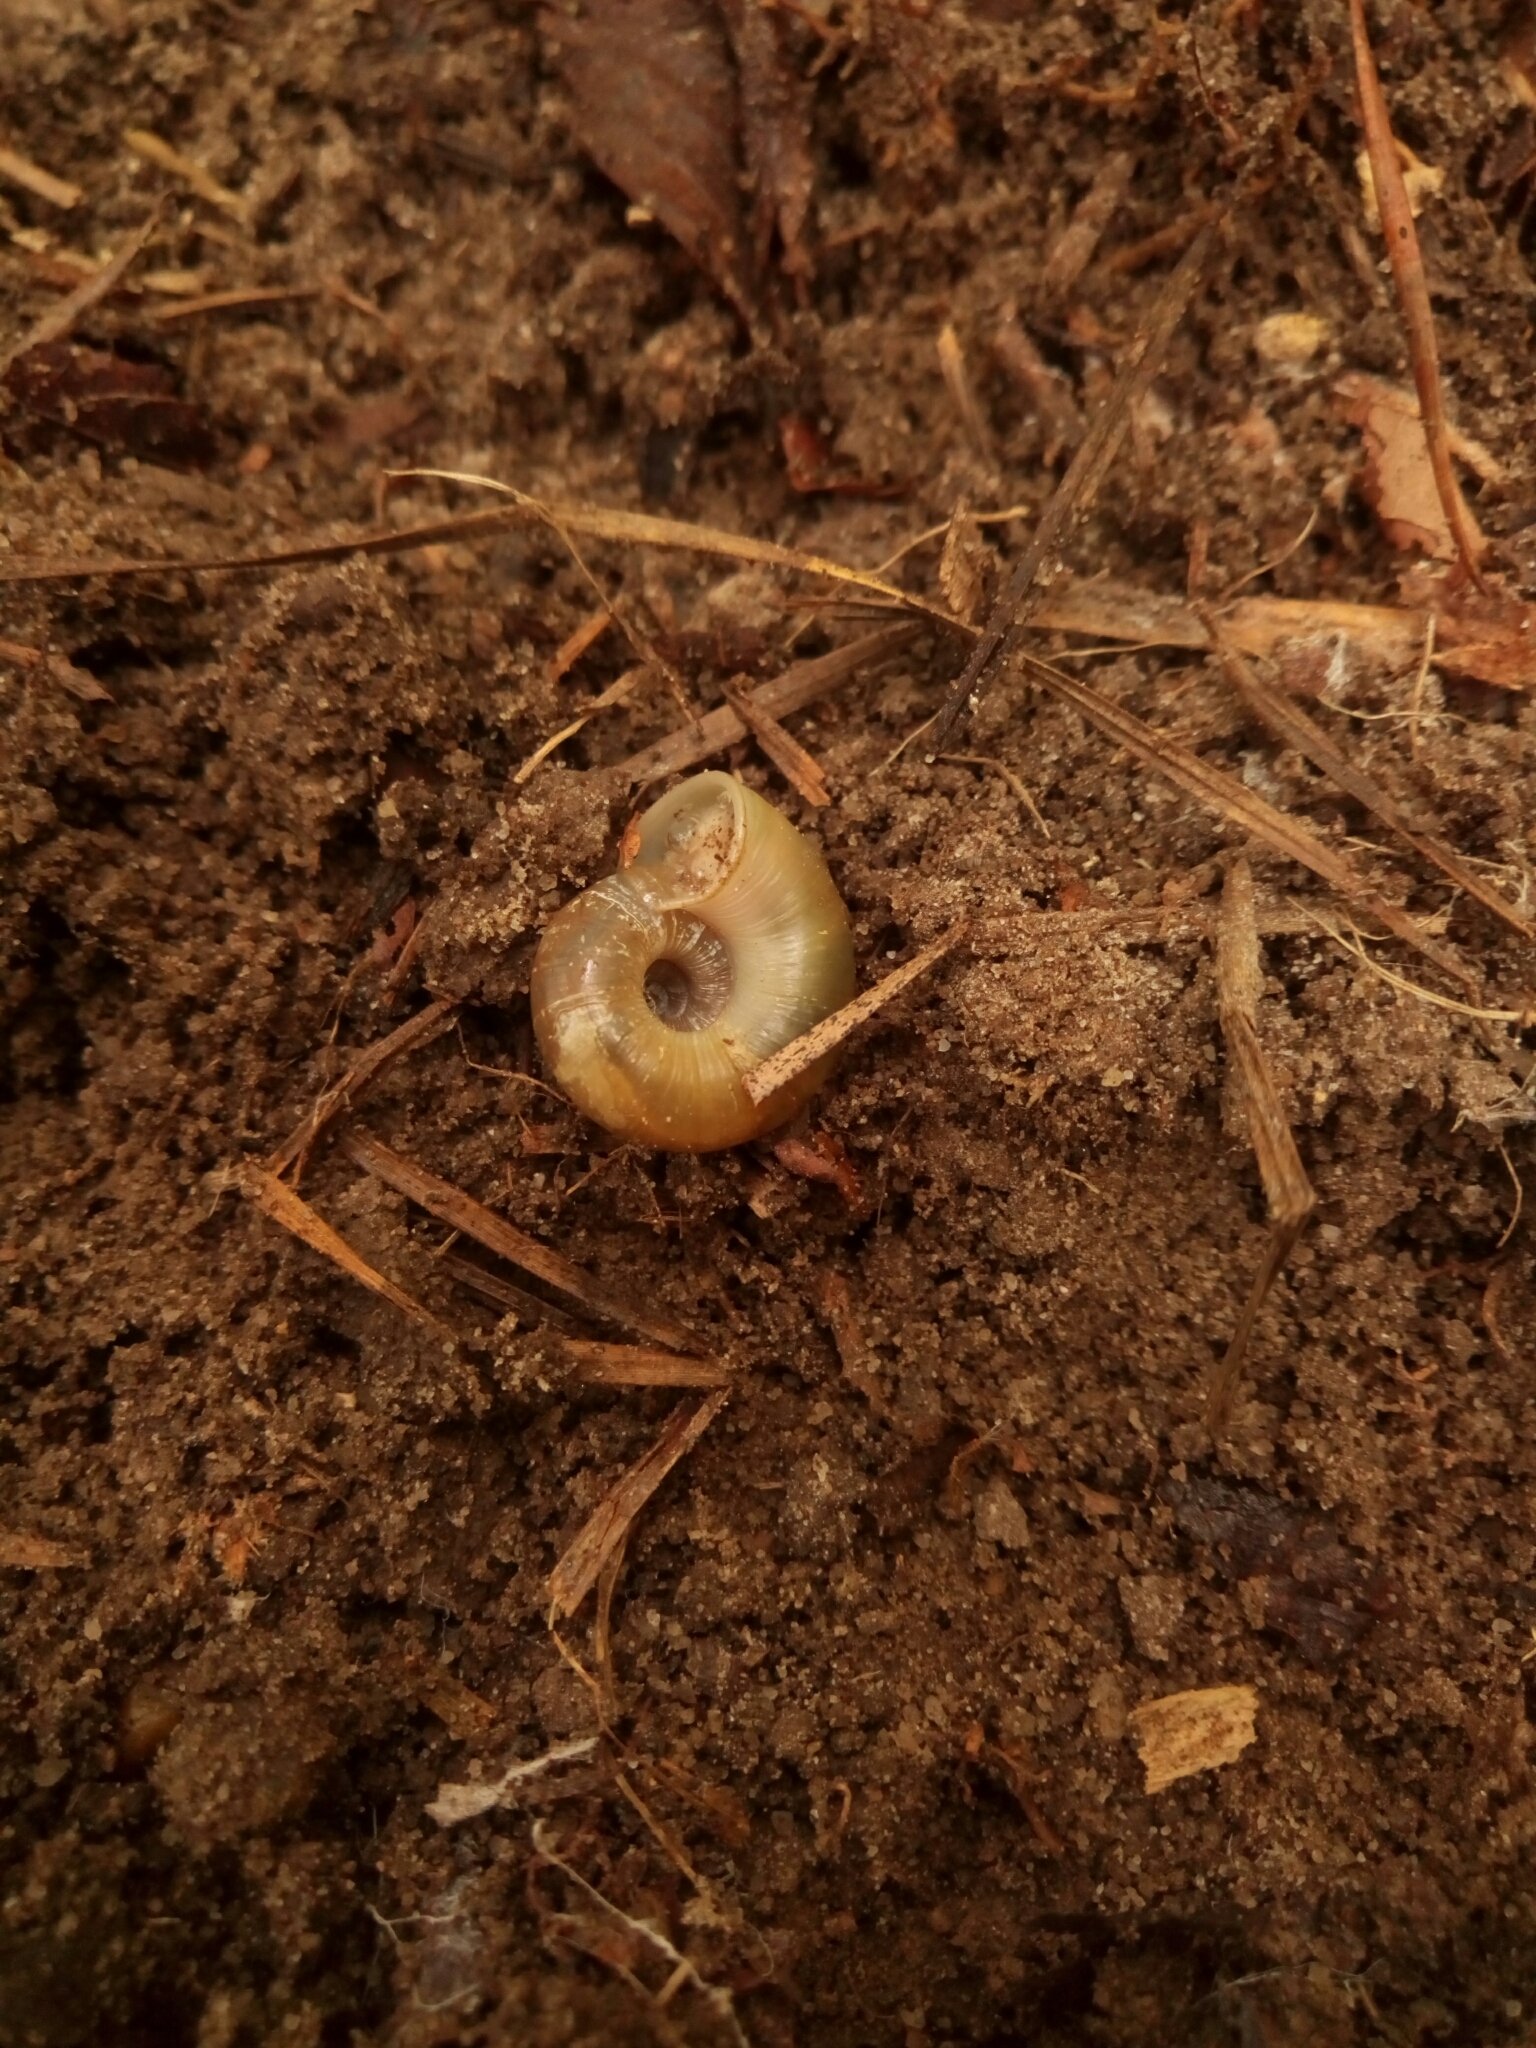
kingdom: Animalia
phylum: Mollusca
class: Gastropoda
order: Stylommatophora
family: Haplotrematidae
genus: Haplotrema
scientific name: Haplotrema concavum
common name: Gray-foot lancetooth
